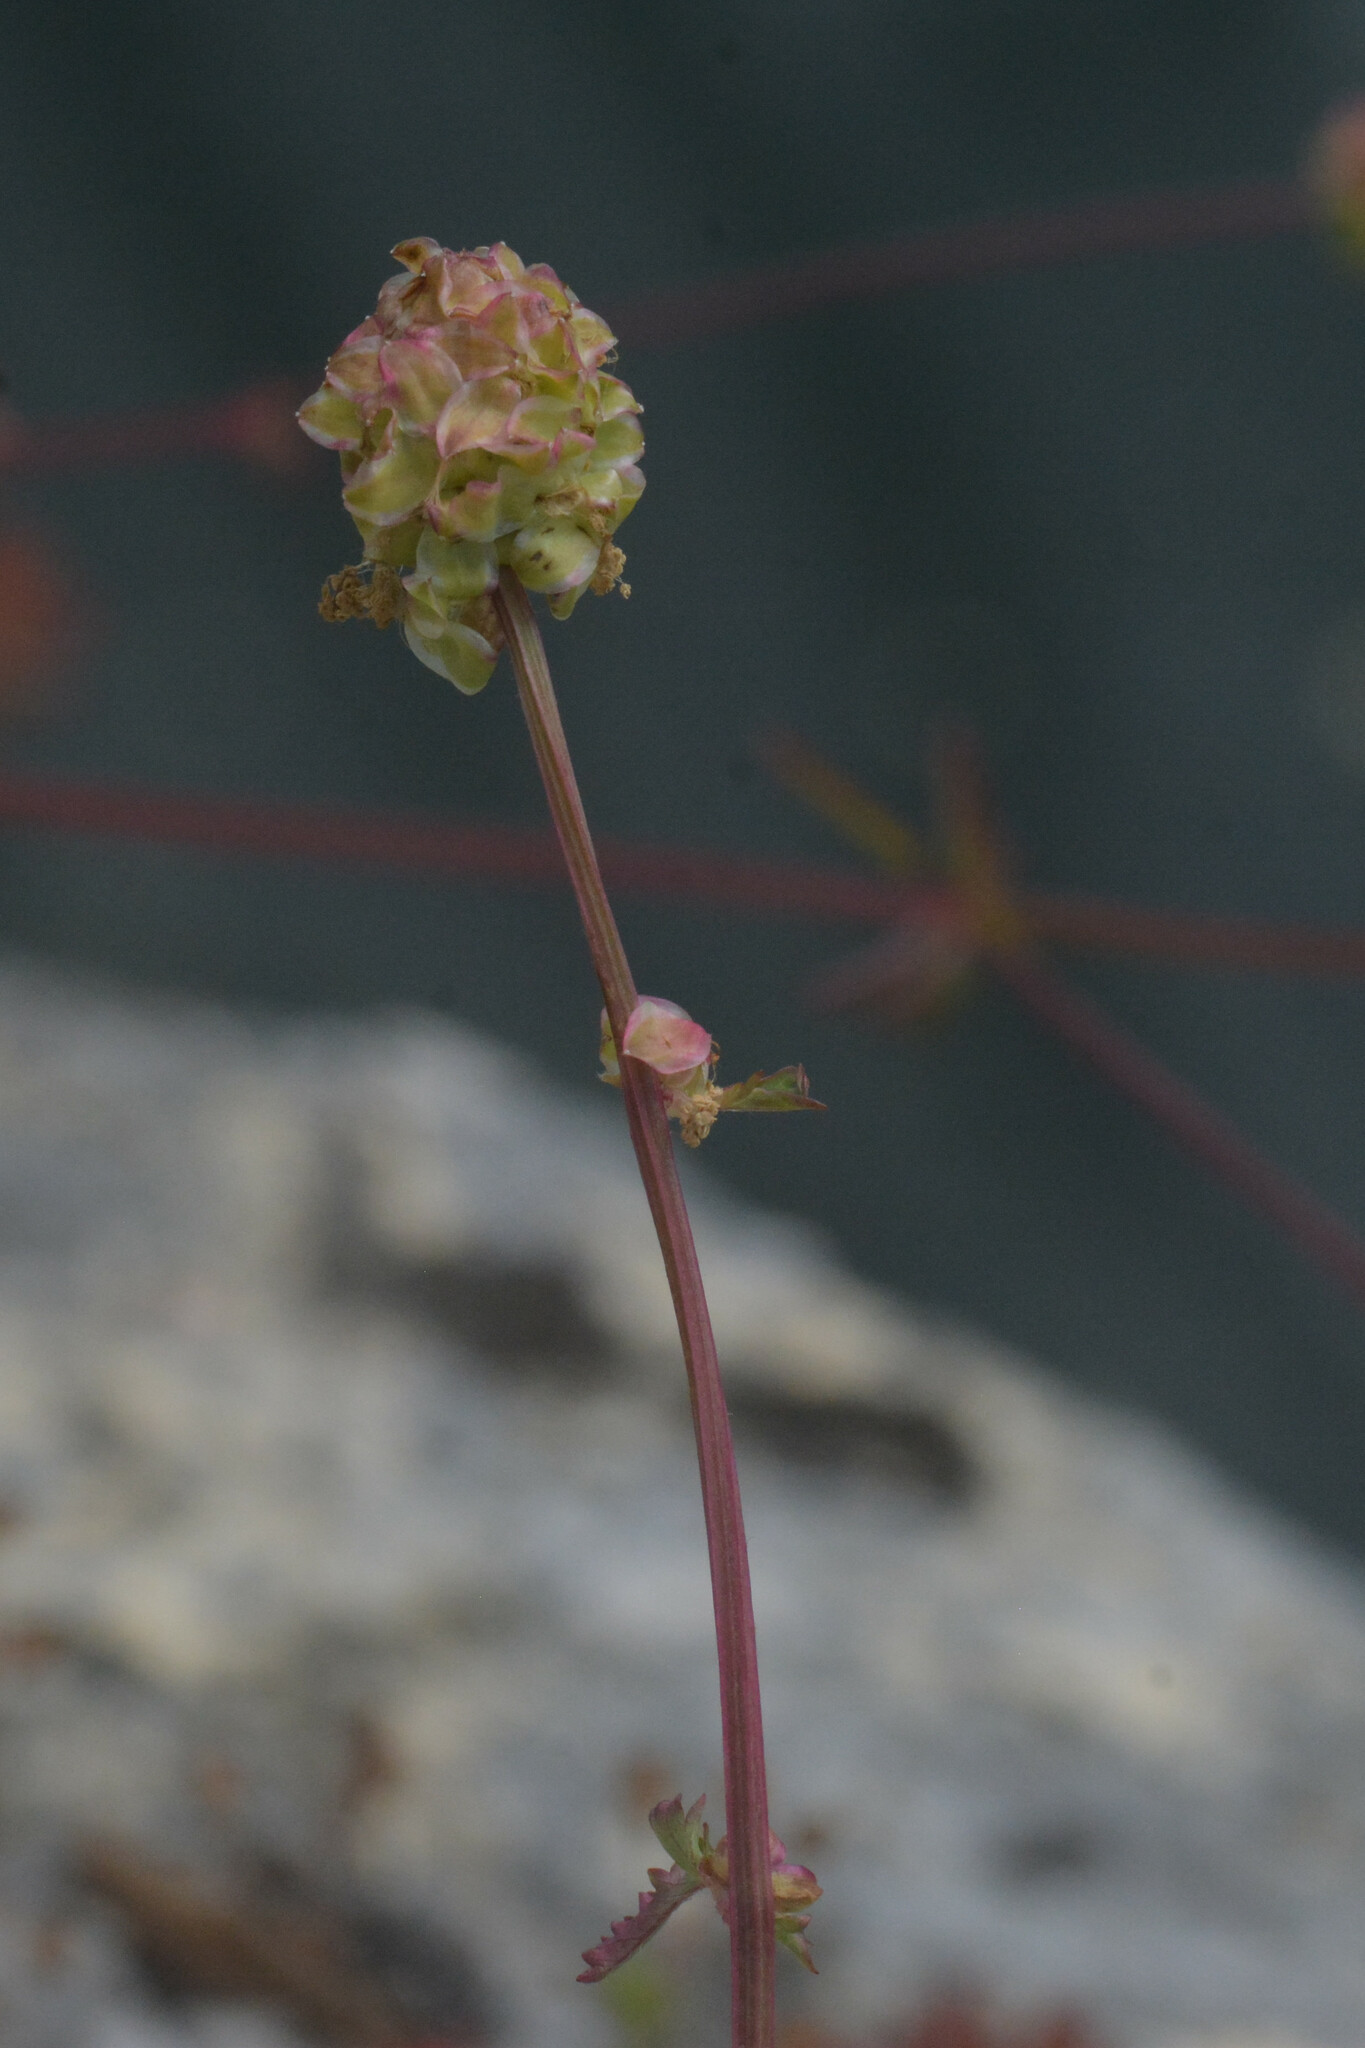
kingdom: Plantae
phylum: Tracheophyta
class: Magnoliopsida
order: Rosales
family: Rosaceae
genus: Poterium
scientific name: Poterium sanguisorba
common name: Salad burnet
